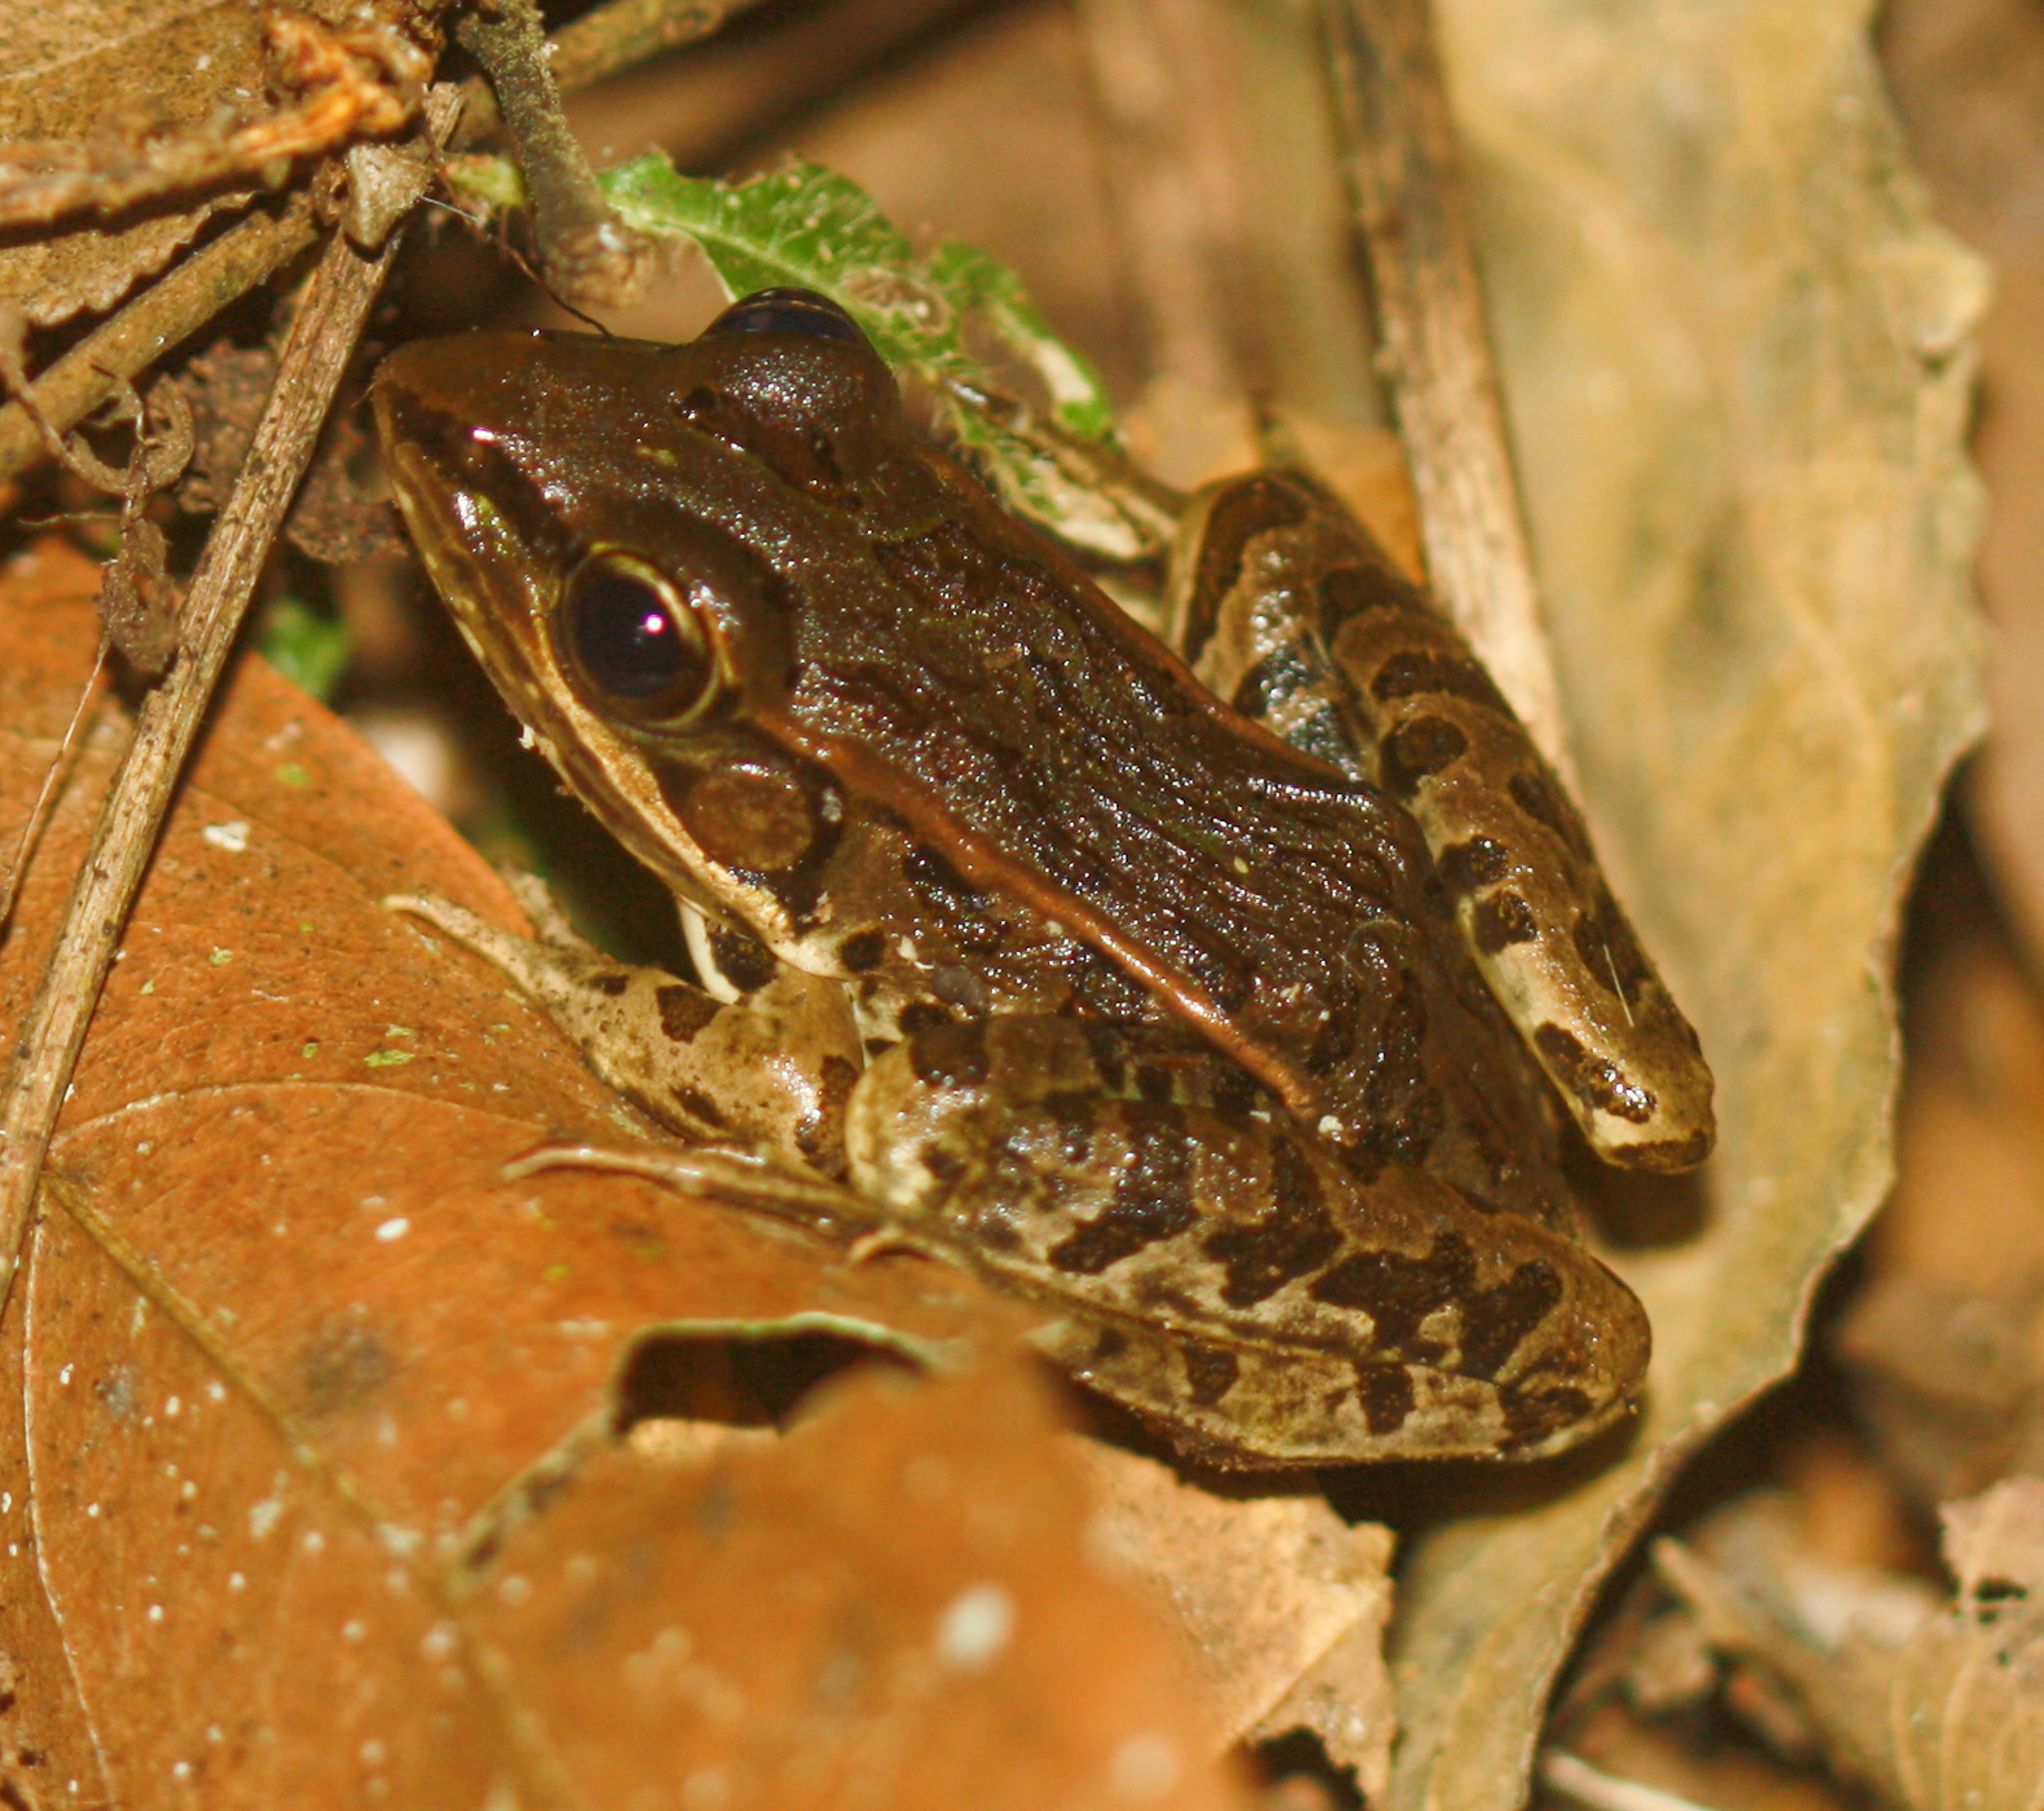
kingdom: Animalia
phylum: Chordata
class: Amphibia
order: Anura
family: Ranidae
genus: Lithobates
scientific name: Lithobates forreri
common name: Forrer's grass frog
